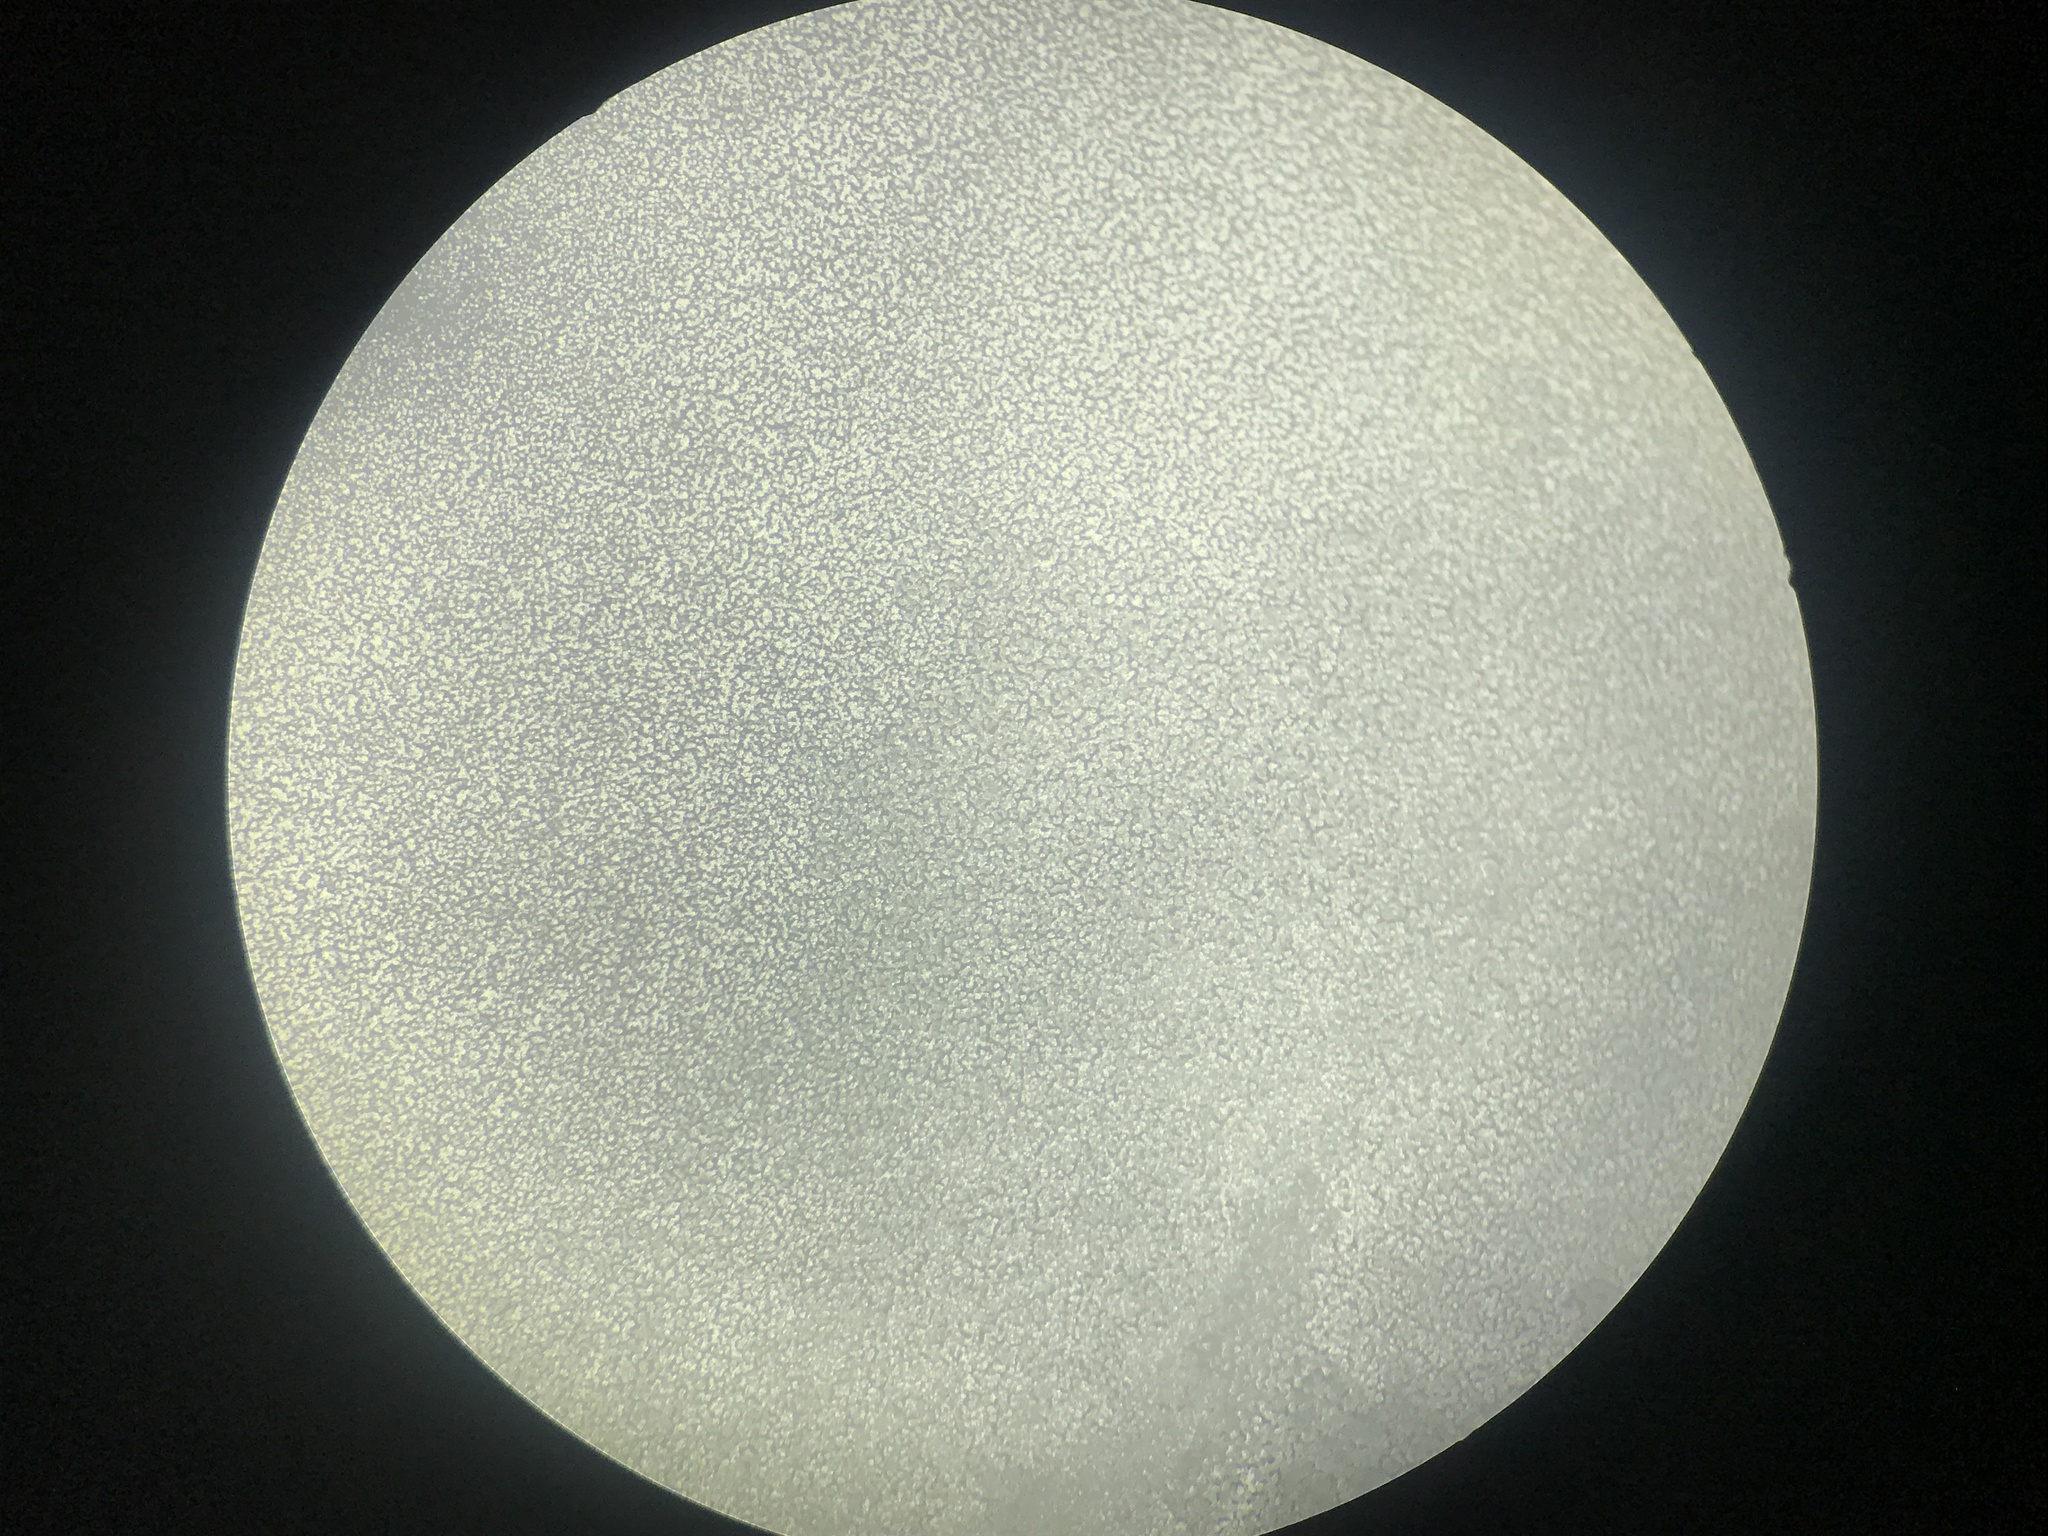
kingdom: Fungi
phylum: Basidiomycota
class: Agaricomycetes
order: Gomphales
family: Clavariadelphaceae
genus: Clavariadelphus
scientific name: Clavariadelphus unicolor
